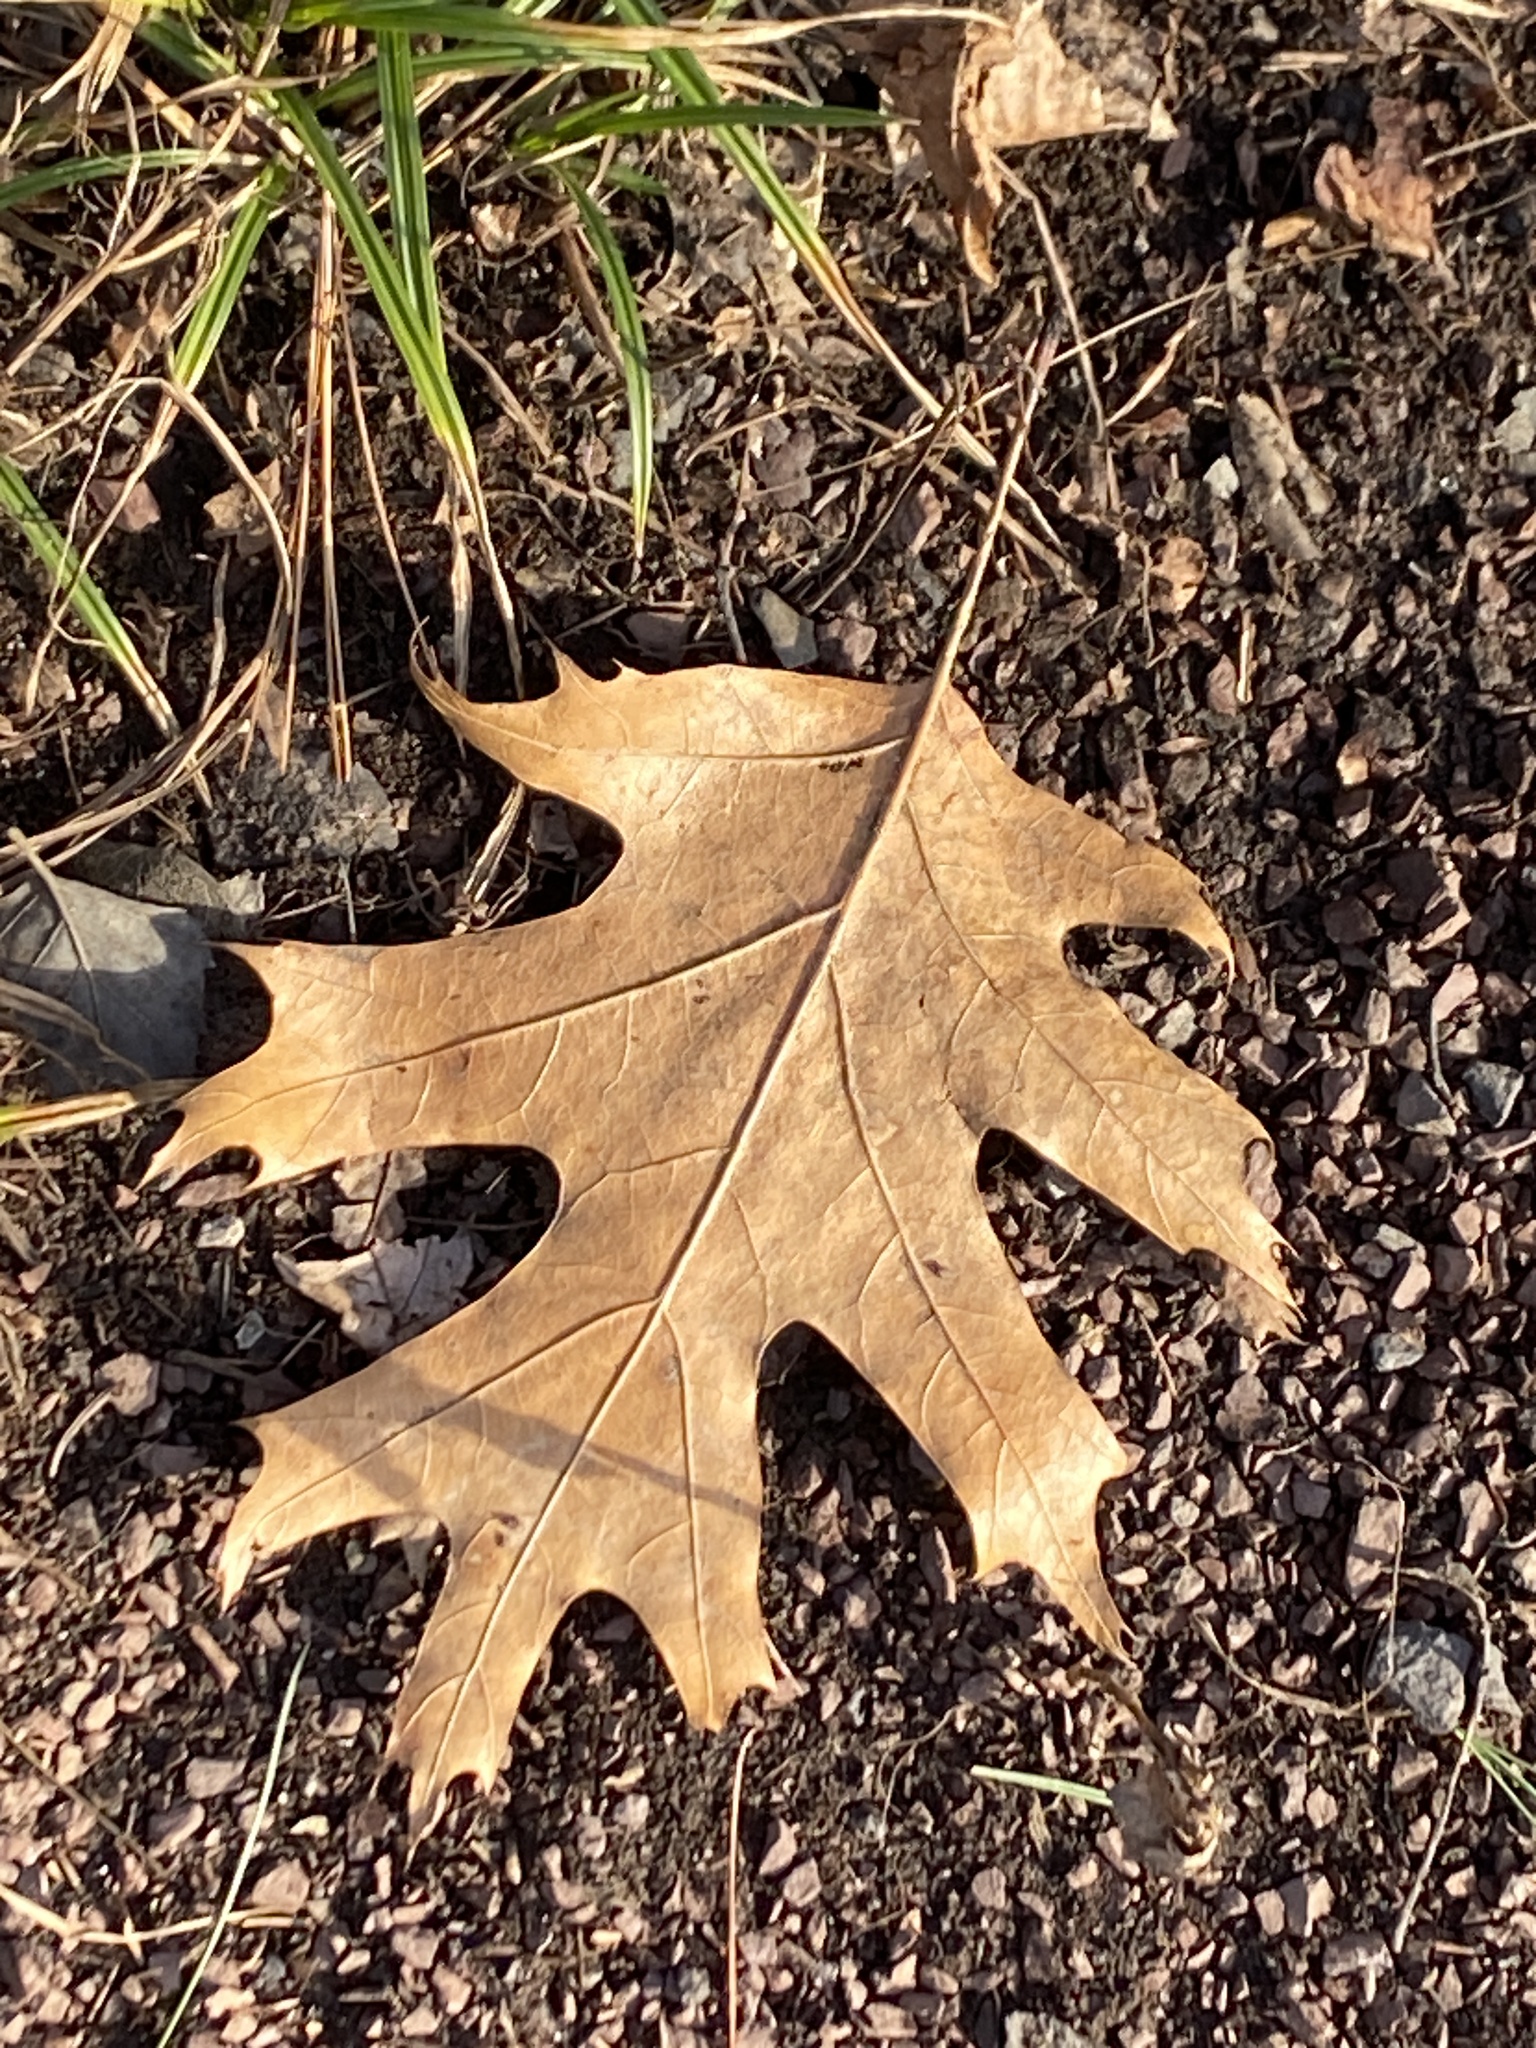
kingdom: Plantae
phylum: Tracheophyta
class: Magnoliopsida
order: Fagales
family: Fagaceae
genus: Quercus
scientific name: Quercus rubra
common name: Red oak
